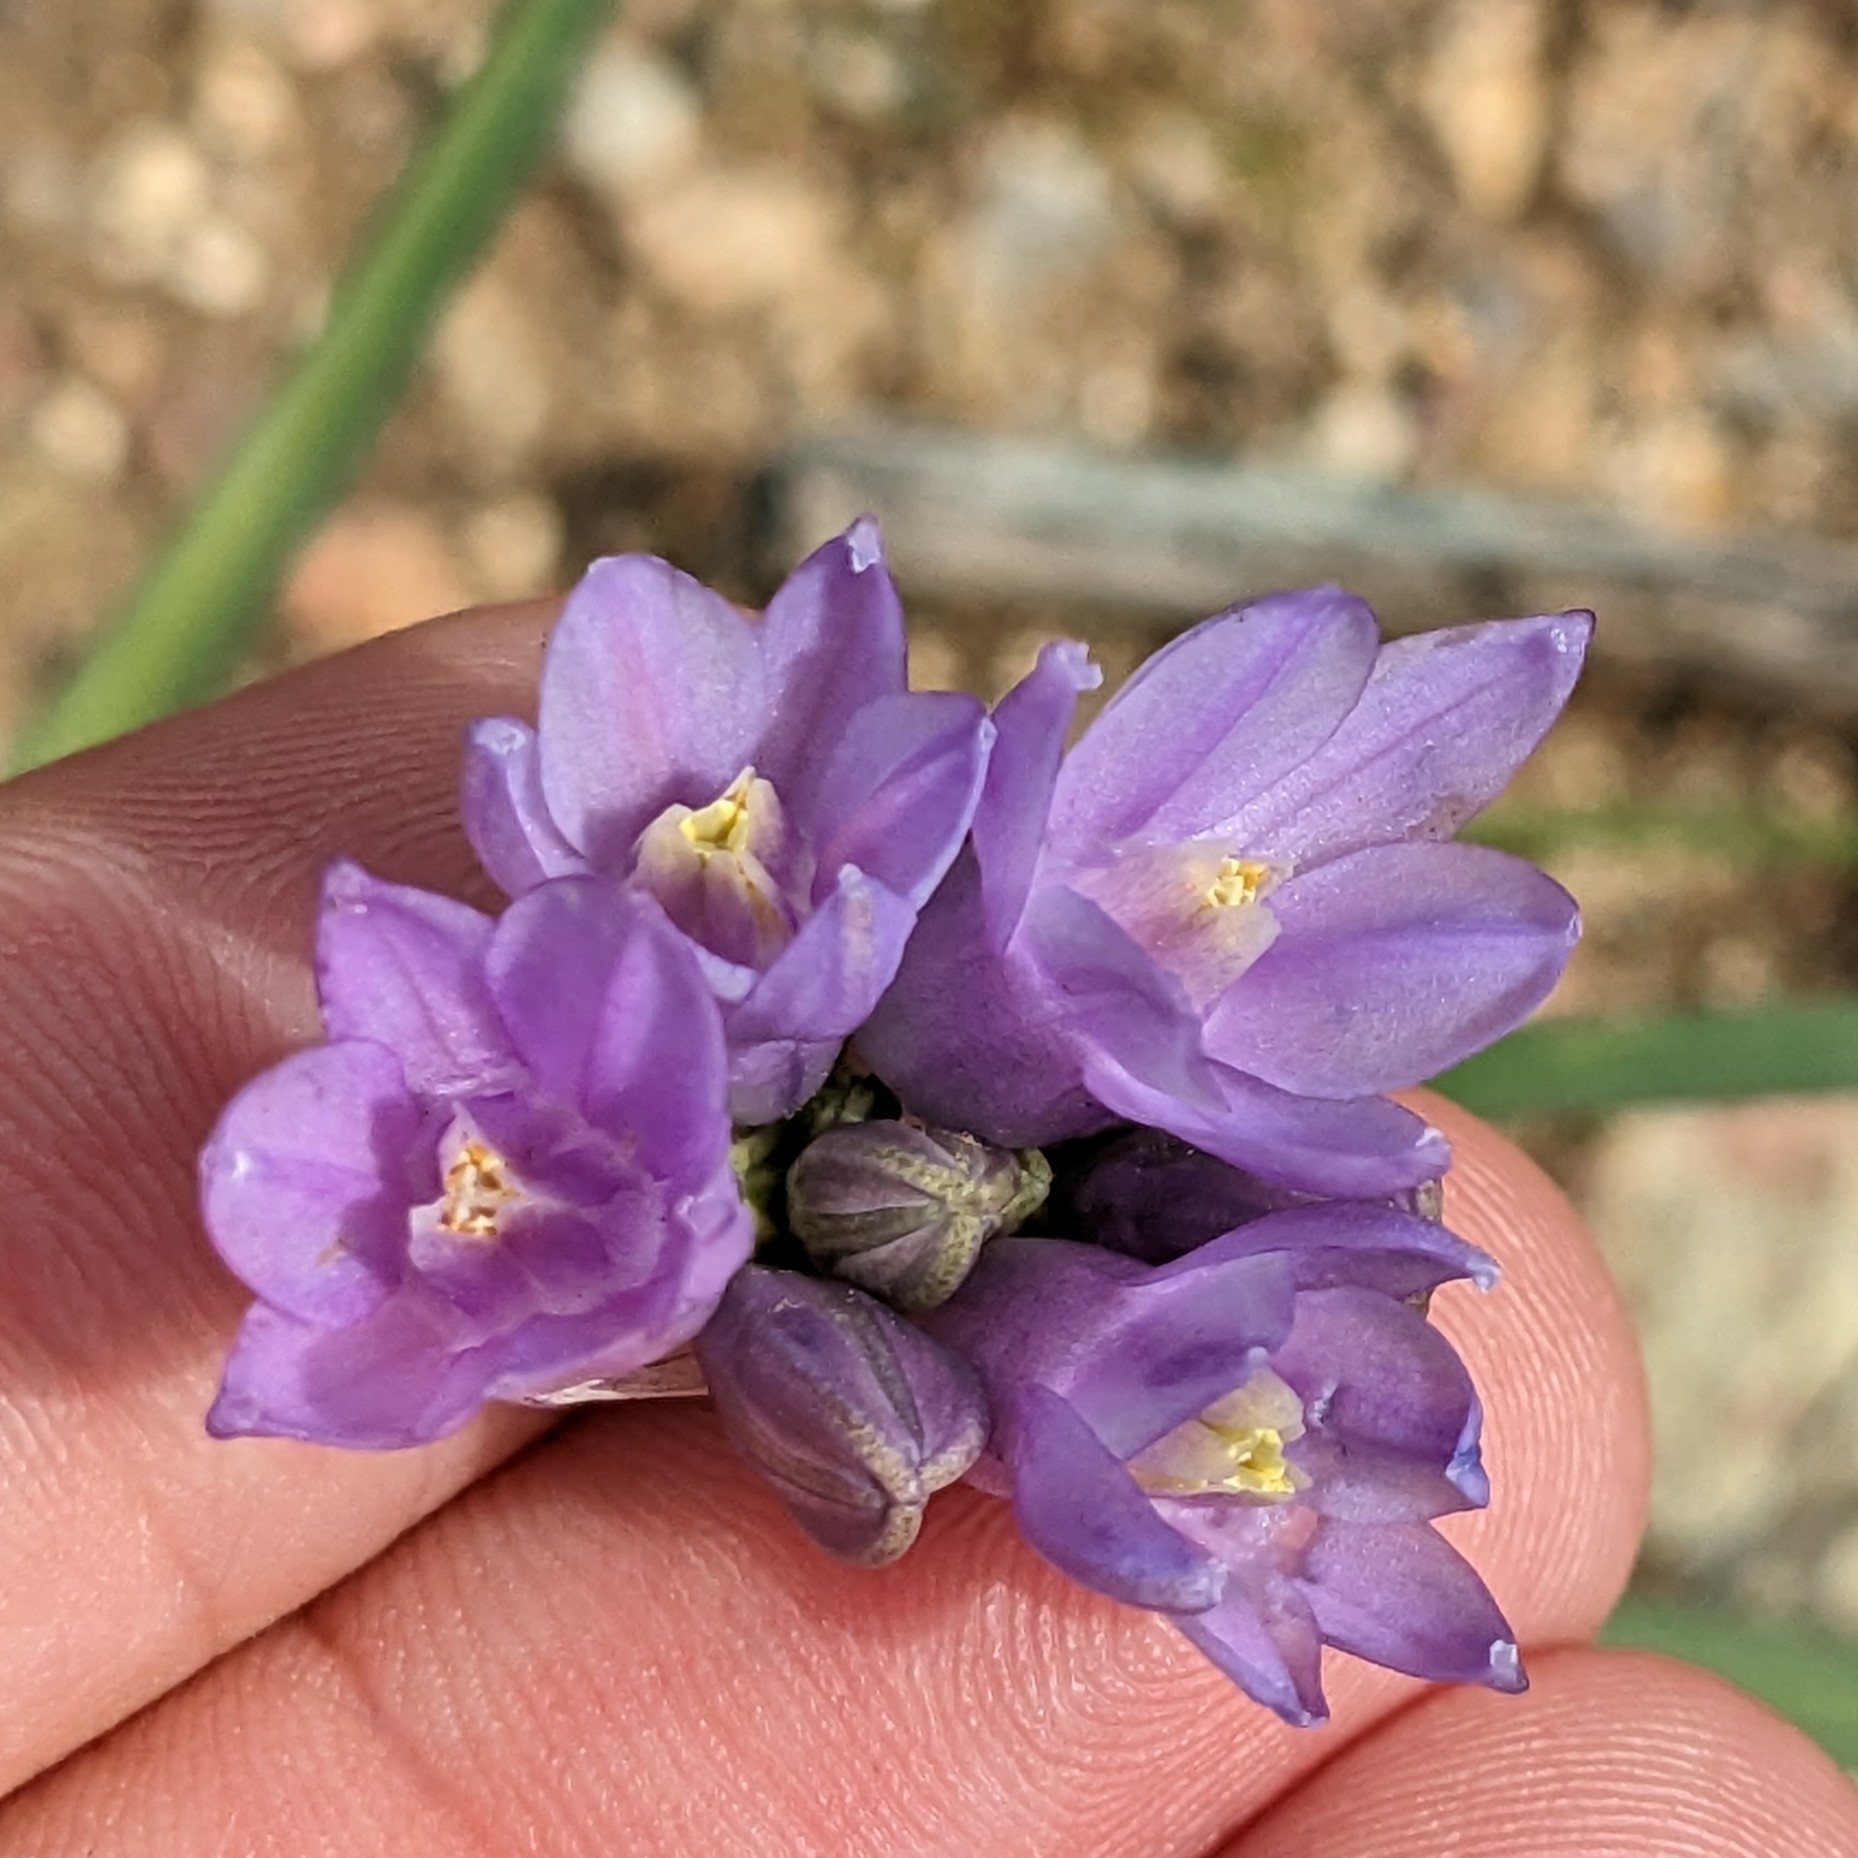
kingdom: Plantae
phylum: Tracheophyta
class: Liliopsida
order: Asparagales
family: Asparagaceae
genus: Dipterostemon
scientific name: Dipterostemon capitatus
